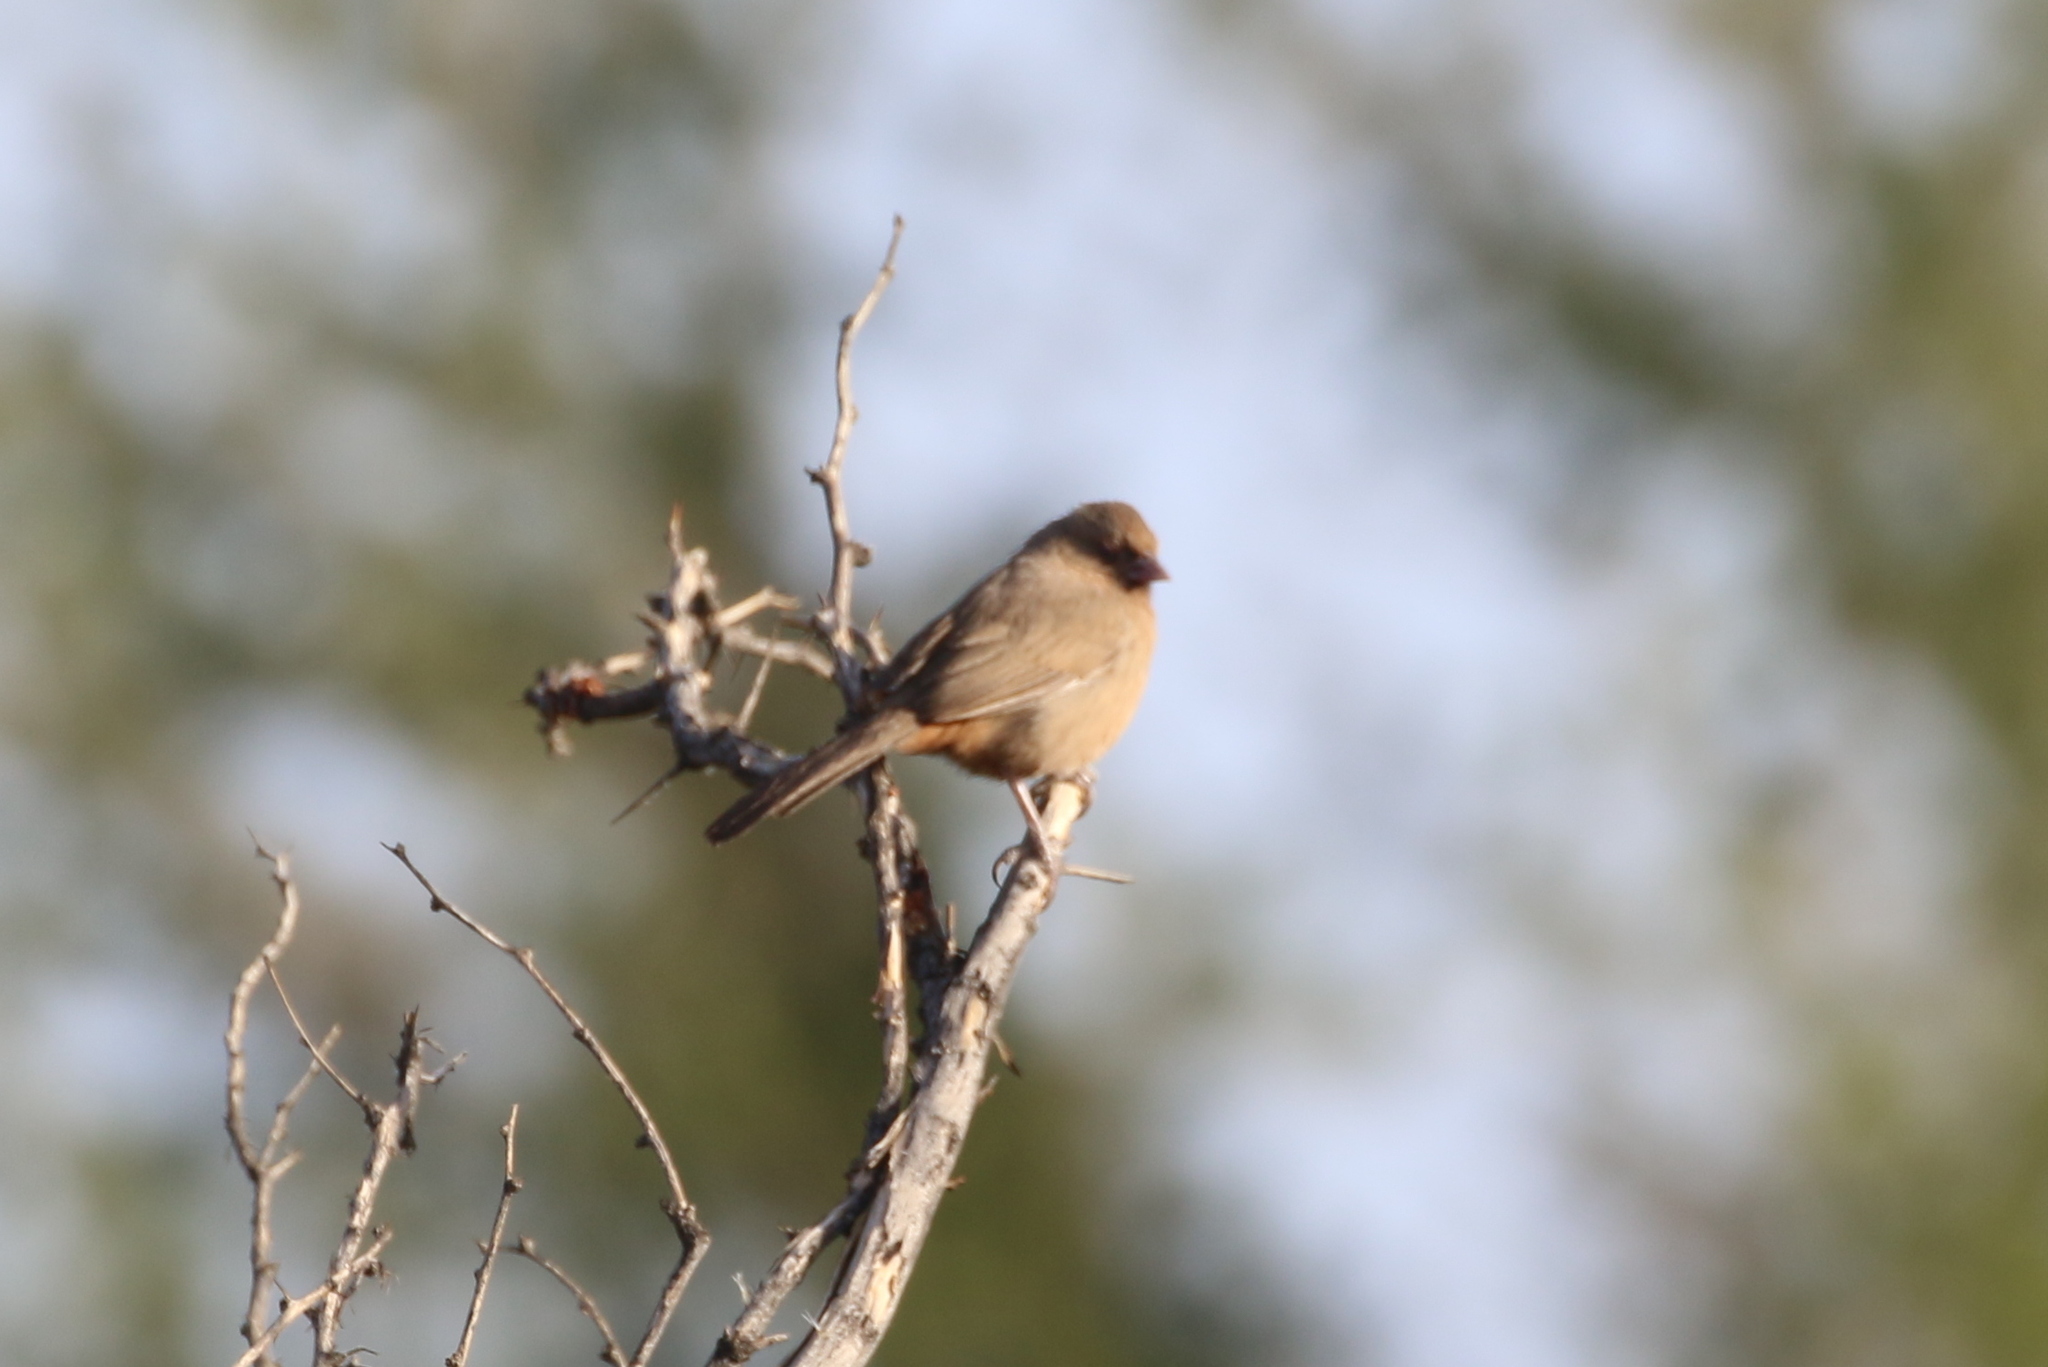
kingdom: Animalia
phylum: Chordata
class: Aves
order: Passeriformes
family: Passerellidae
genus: Melozone
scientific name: Melozone aberti
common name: Abert's towhee
